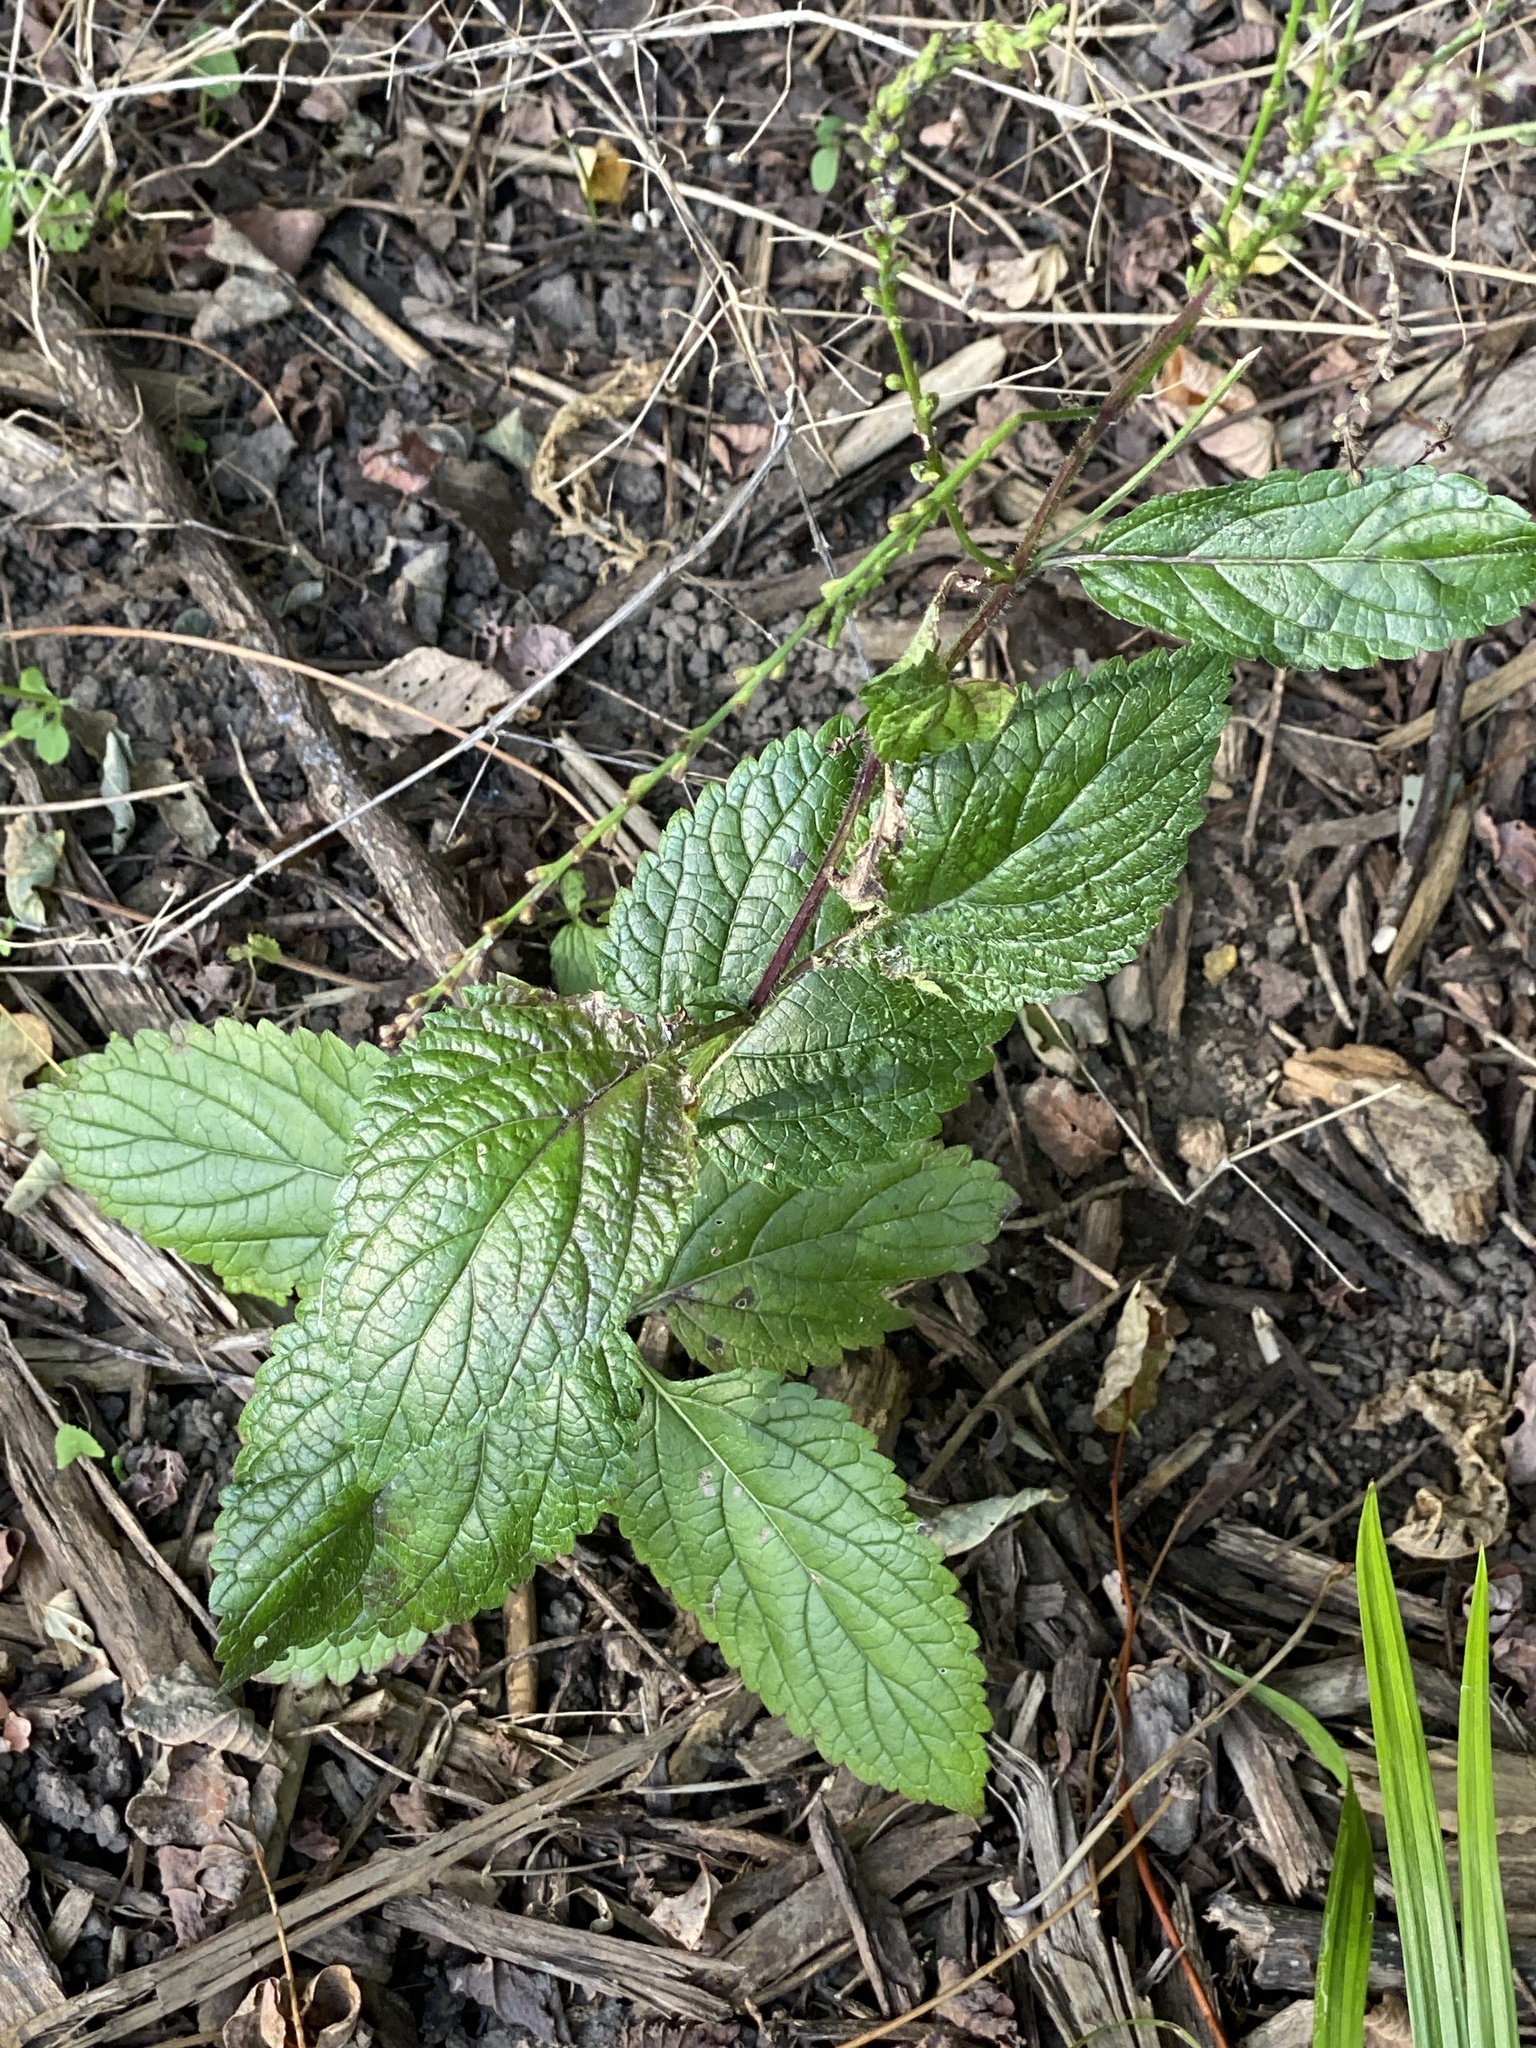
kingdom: Plantae
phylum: Tracheophyta
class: Magnoliopsida
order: Lamiales
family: Verbenaceae
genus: Verbena
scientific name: Verbena urticifolia
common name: Nettle-leaved vervain
